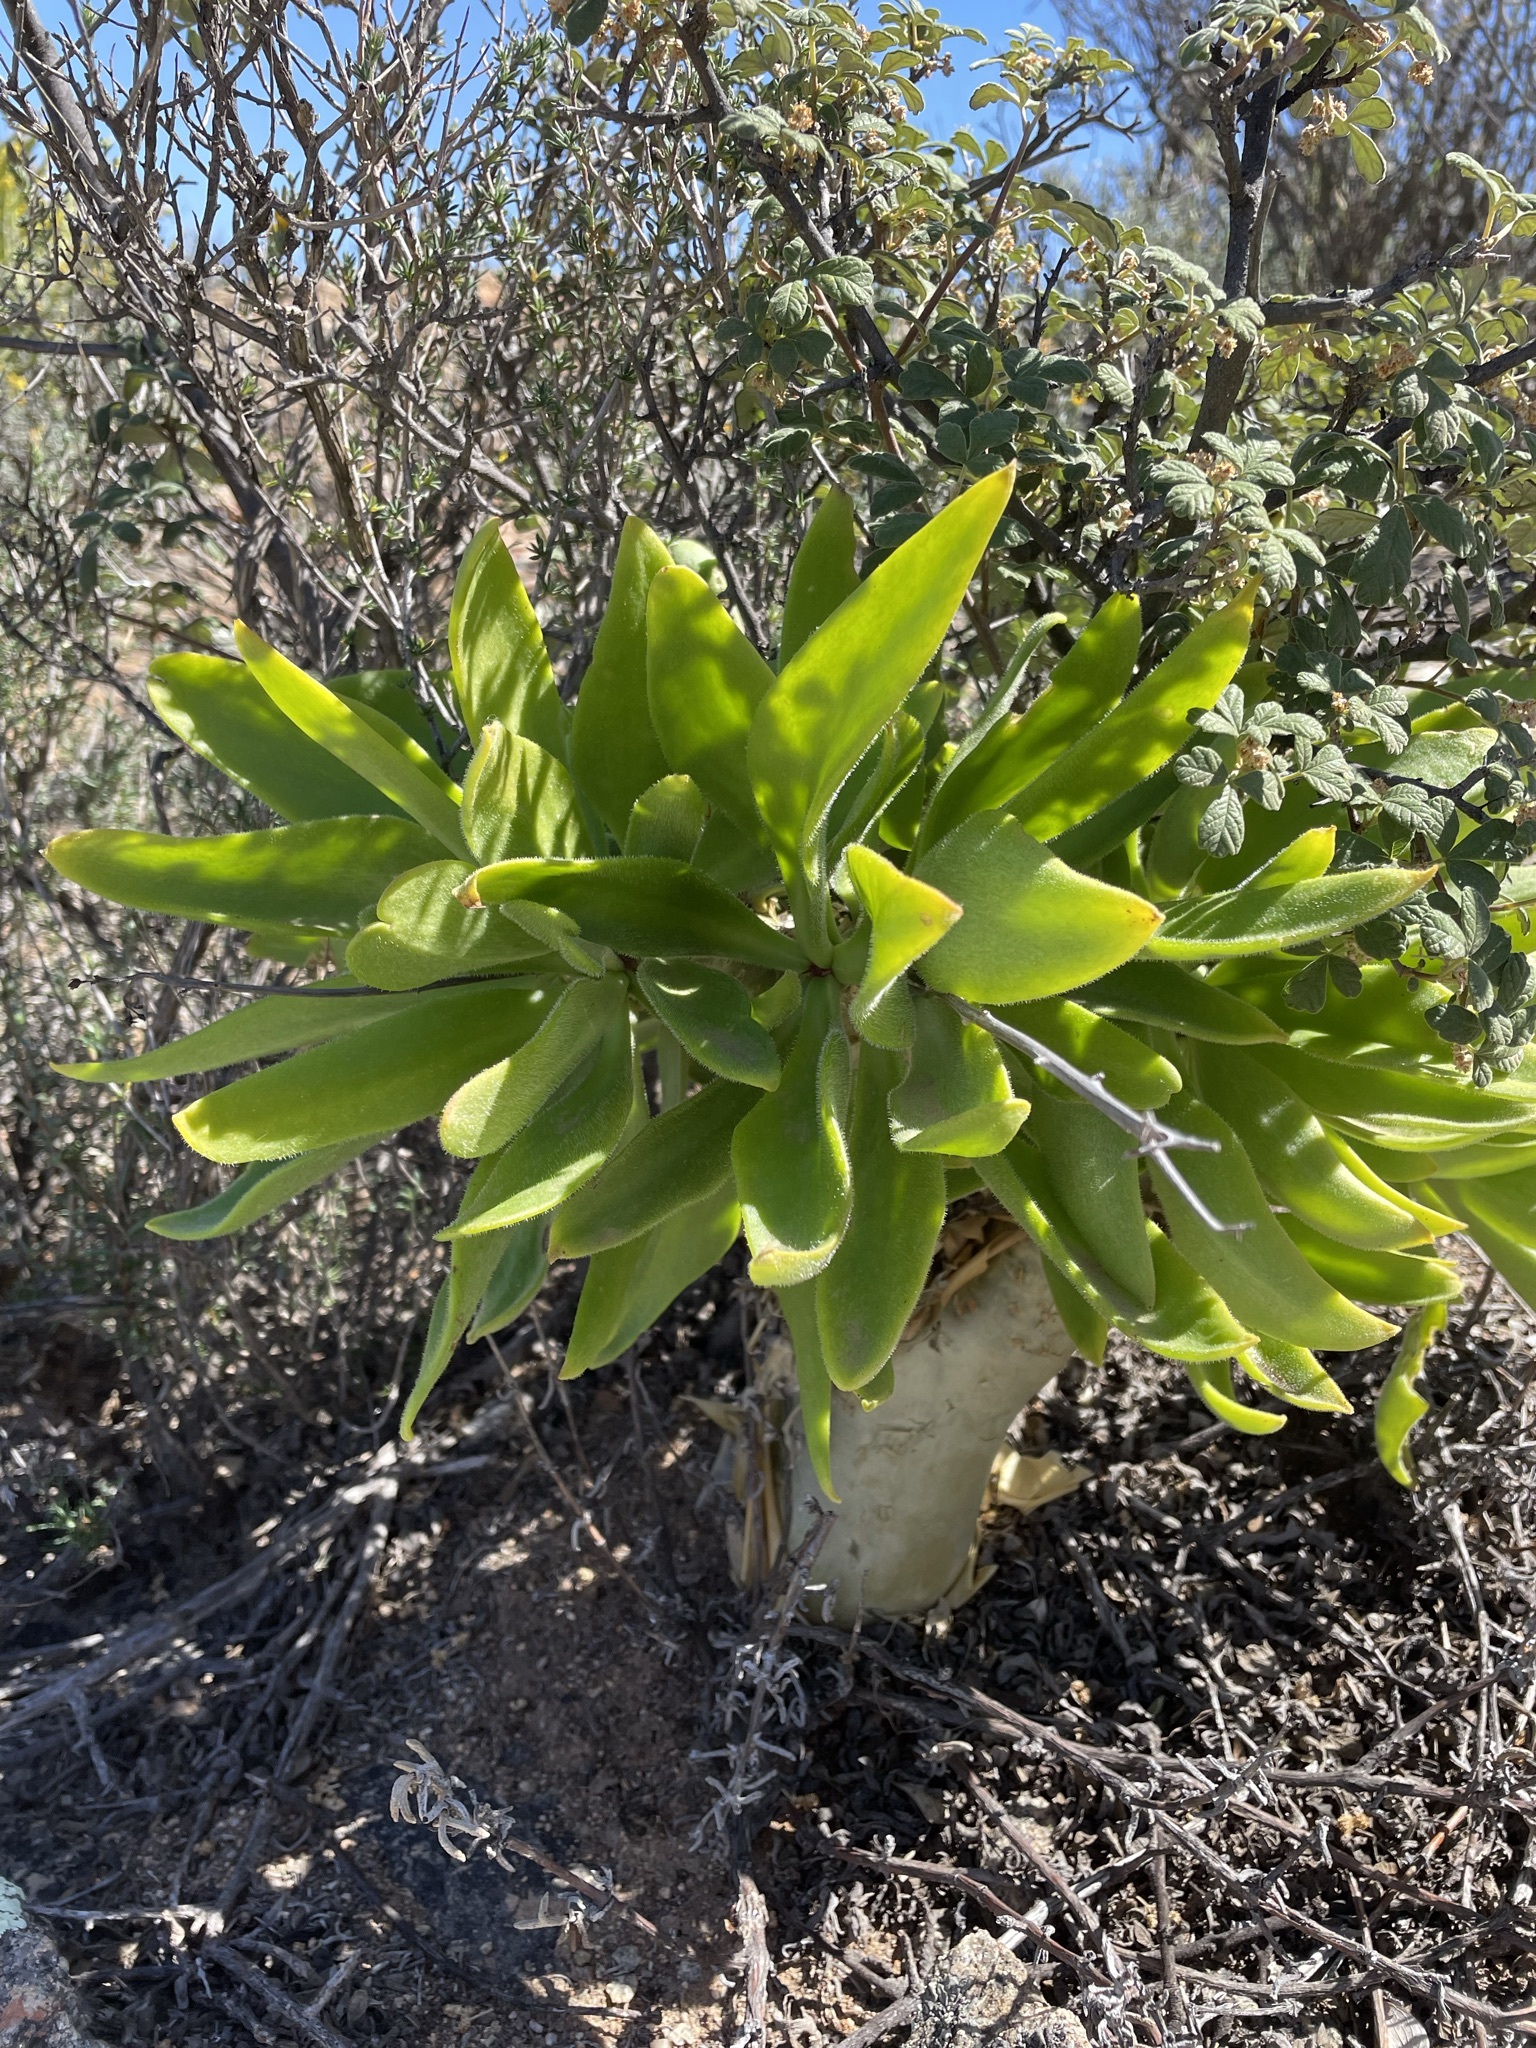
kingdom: Plantae
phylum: Tracheophyta
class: Magnoliopsida
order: Saxifragales
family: Crassulaceae
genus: Tylecodon
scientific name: Tylecodon paniculatus
